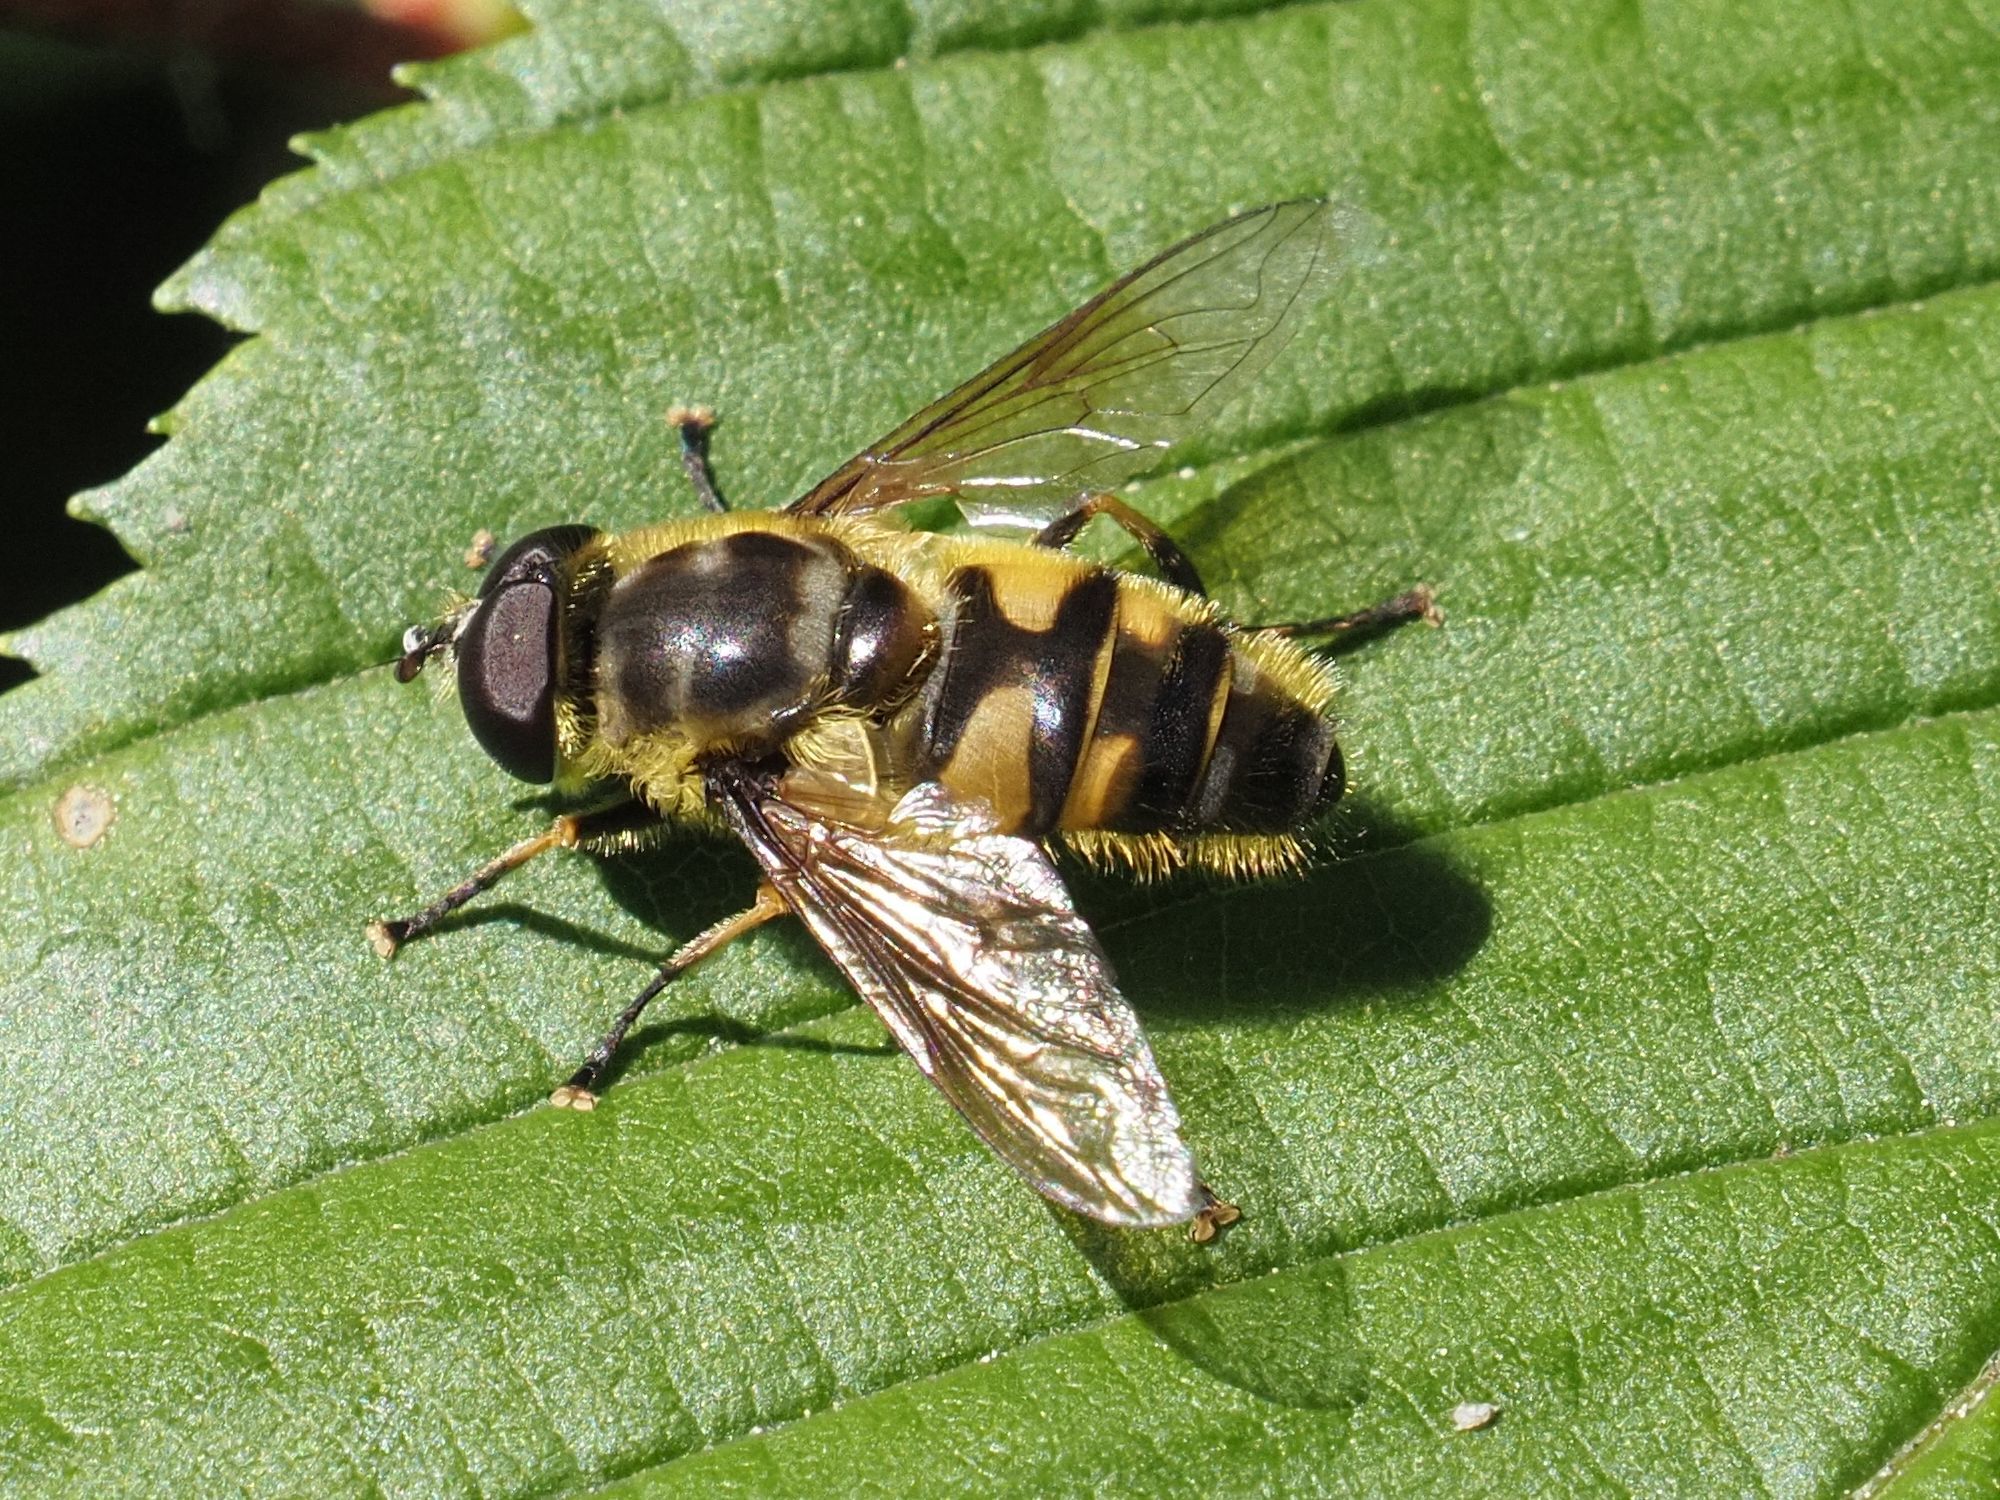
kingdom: Animalia
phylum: Arthropoda
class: Insecta
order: Diptera
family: Syrphidae
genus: Myathropa
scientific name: Myathropa florea
